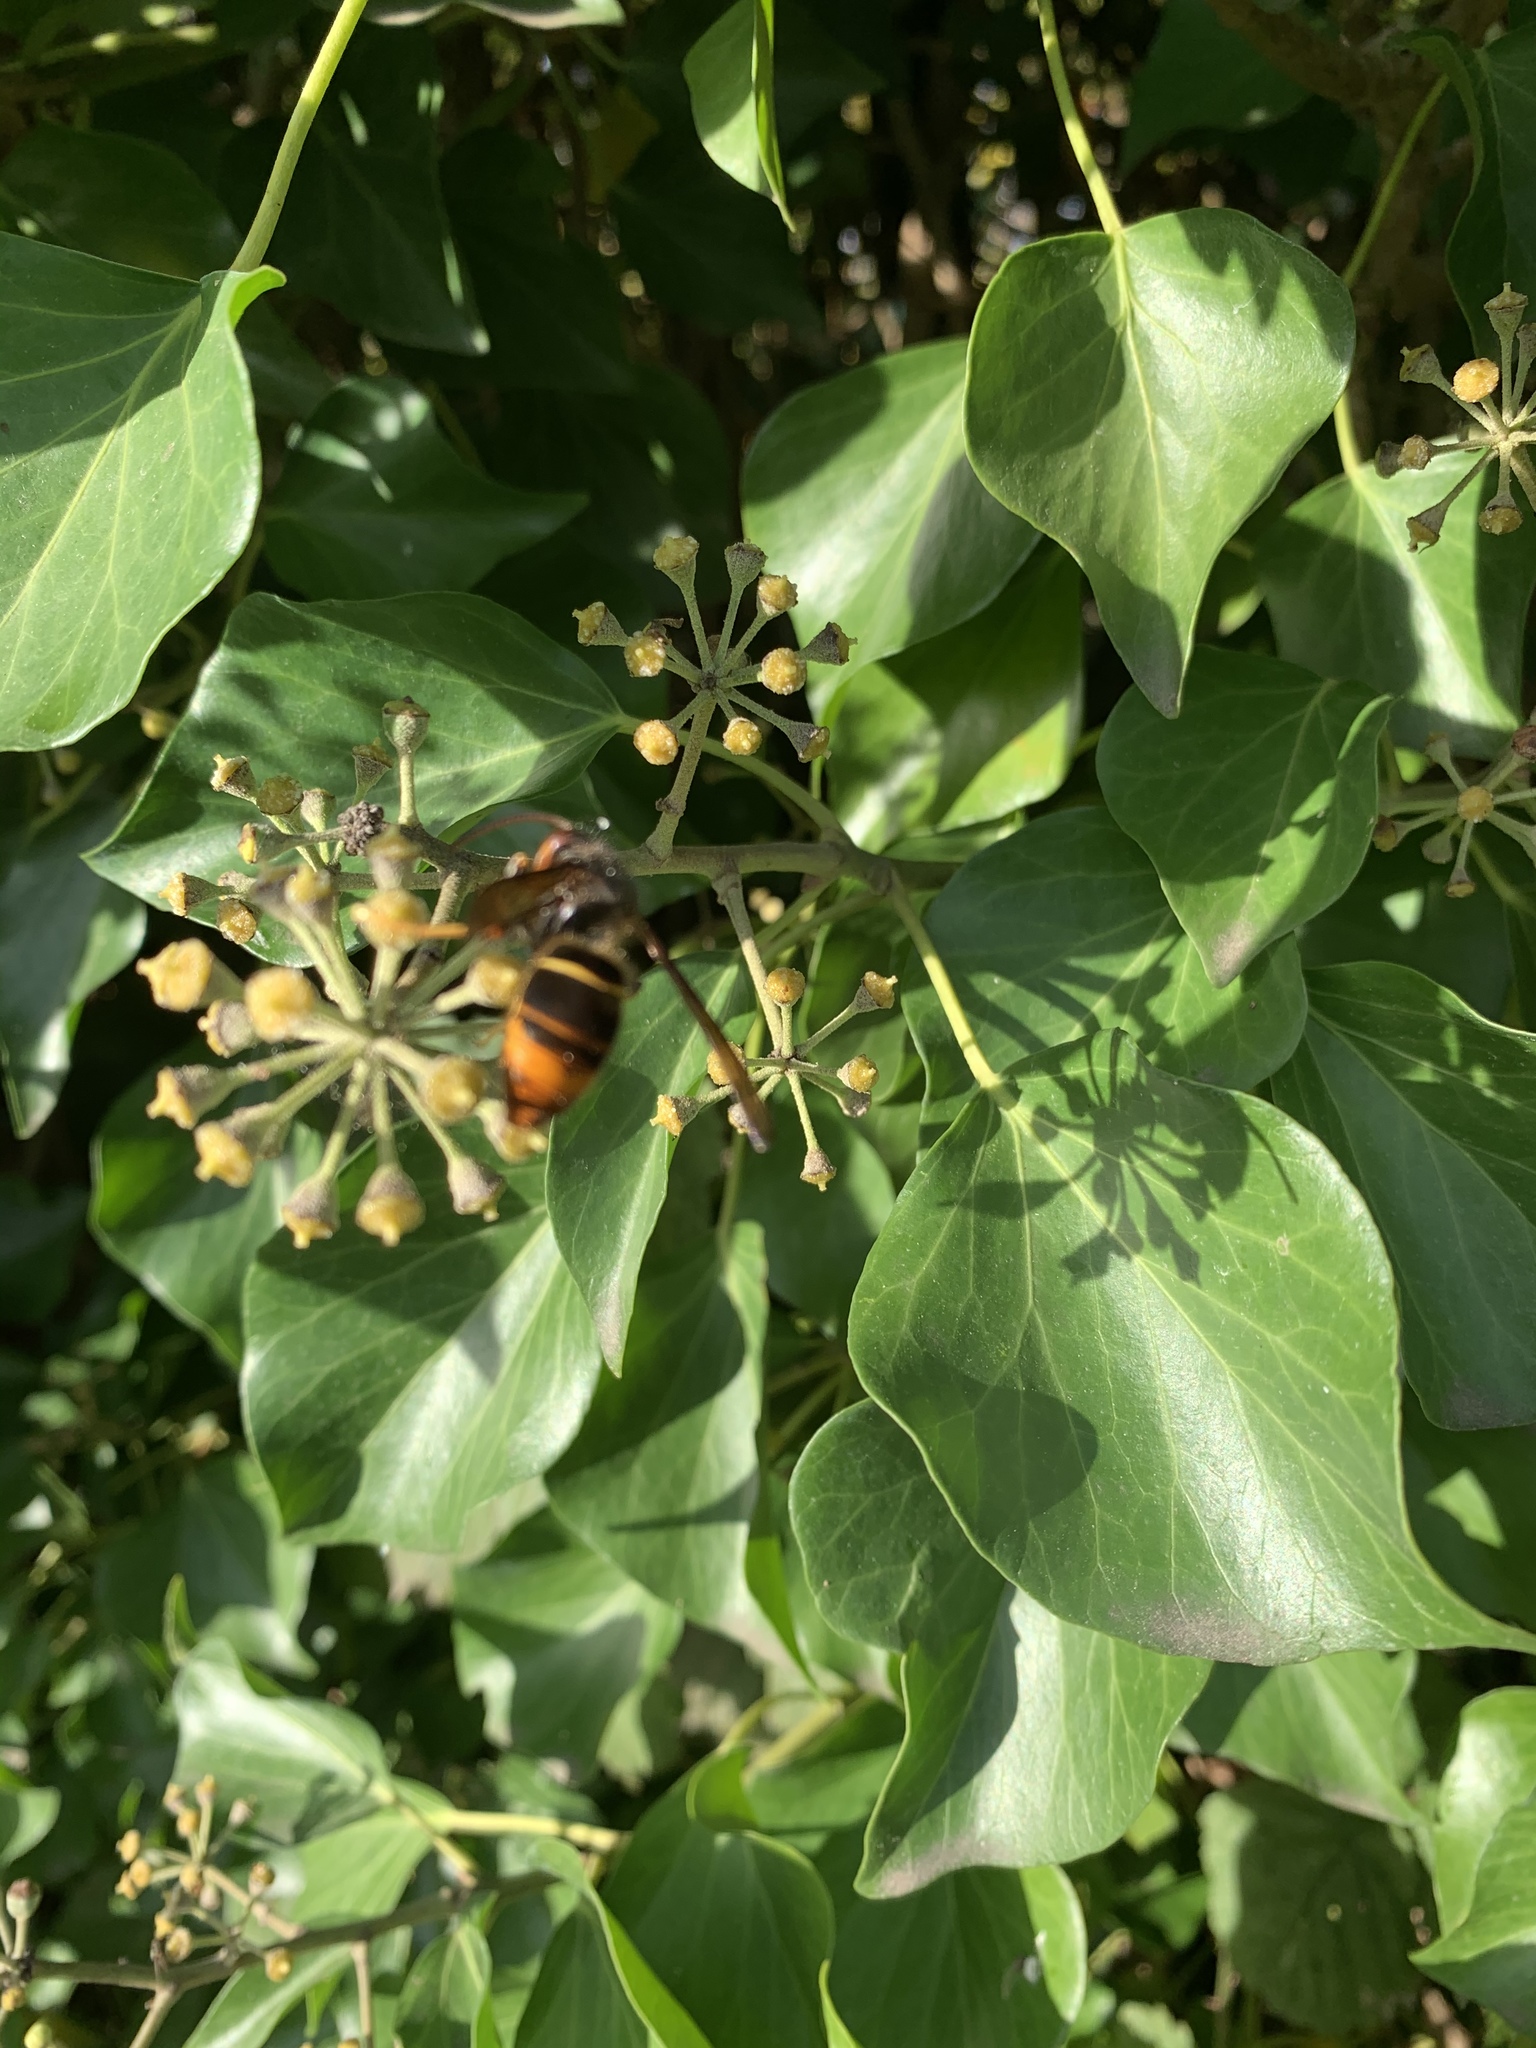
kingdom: Animalia
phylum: Arthropoda
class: Insecta
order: Hymenoptera
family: Vespidae
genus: Vespa
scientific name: Vespa velutina
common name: Asian hornet
